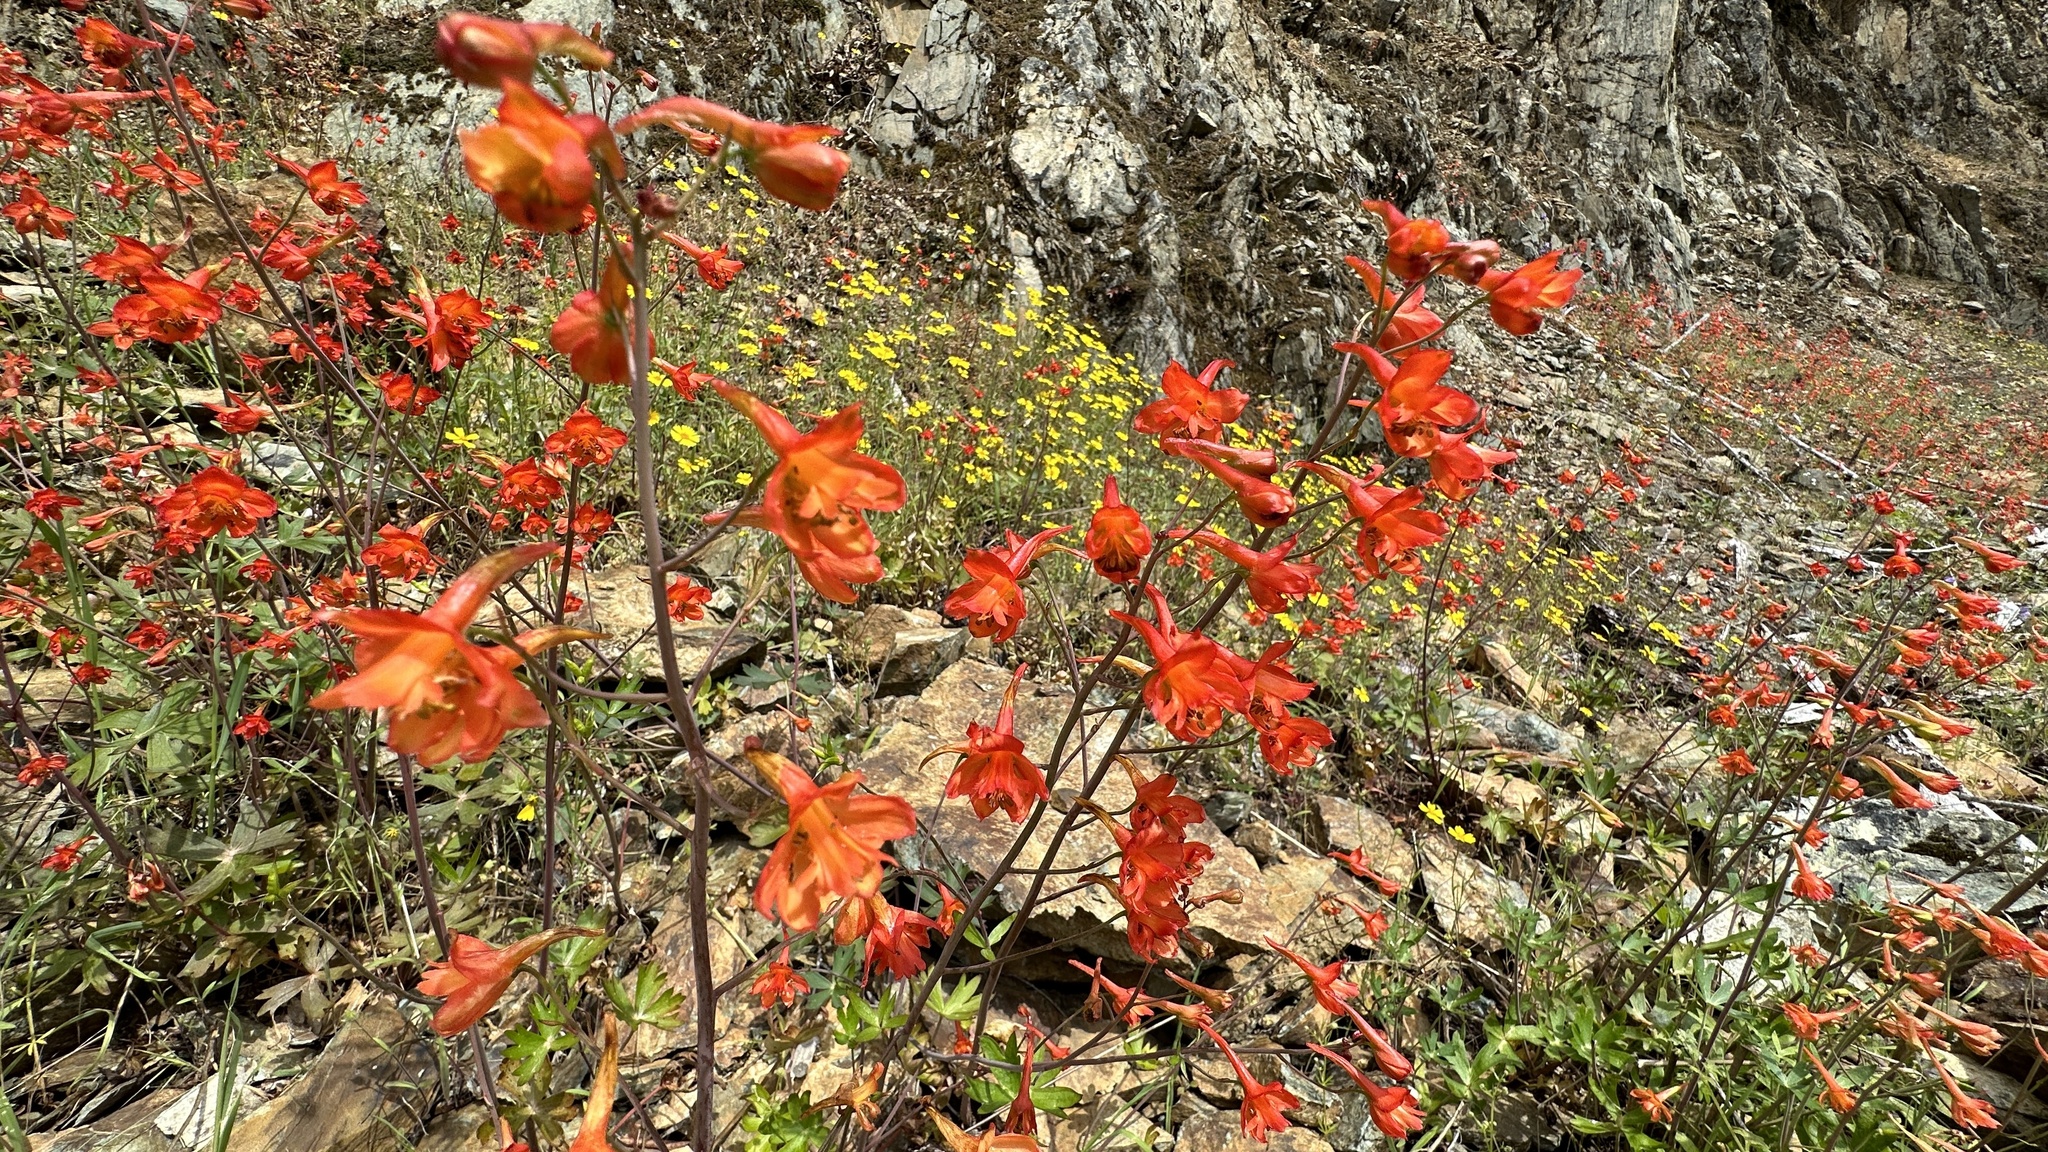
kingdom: Plantae
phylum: Tracheophyta
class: Magnoliopsida
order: Ranunculales
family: Ranunculaceae
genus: Delphinium
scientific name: Delphinium nudicaule
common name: Red larkspur
